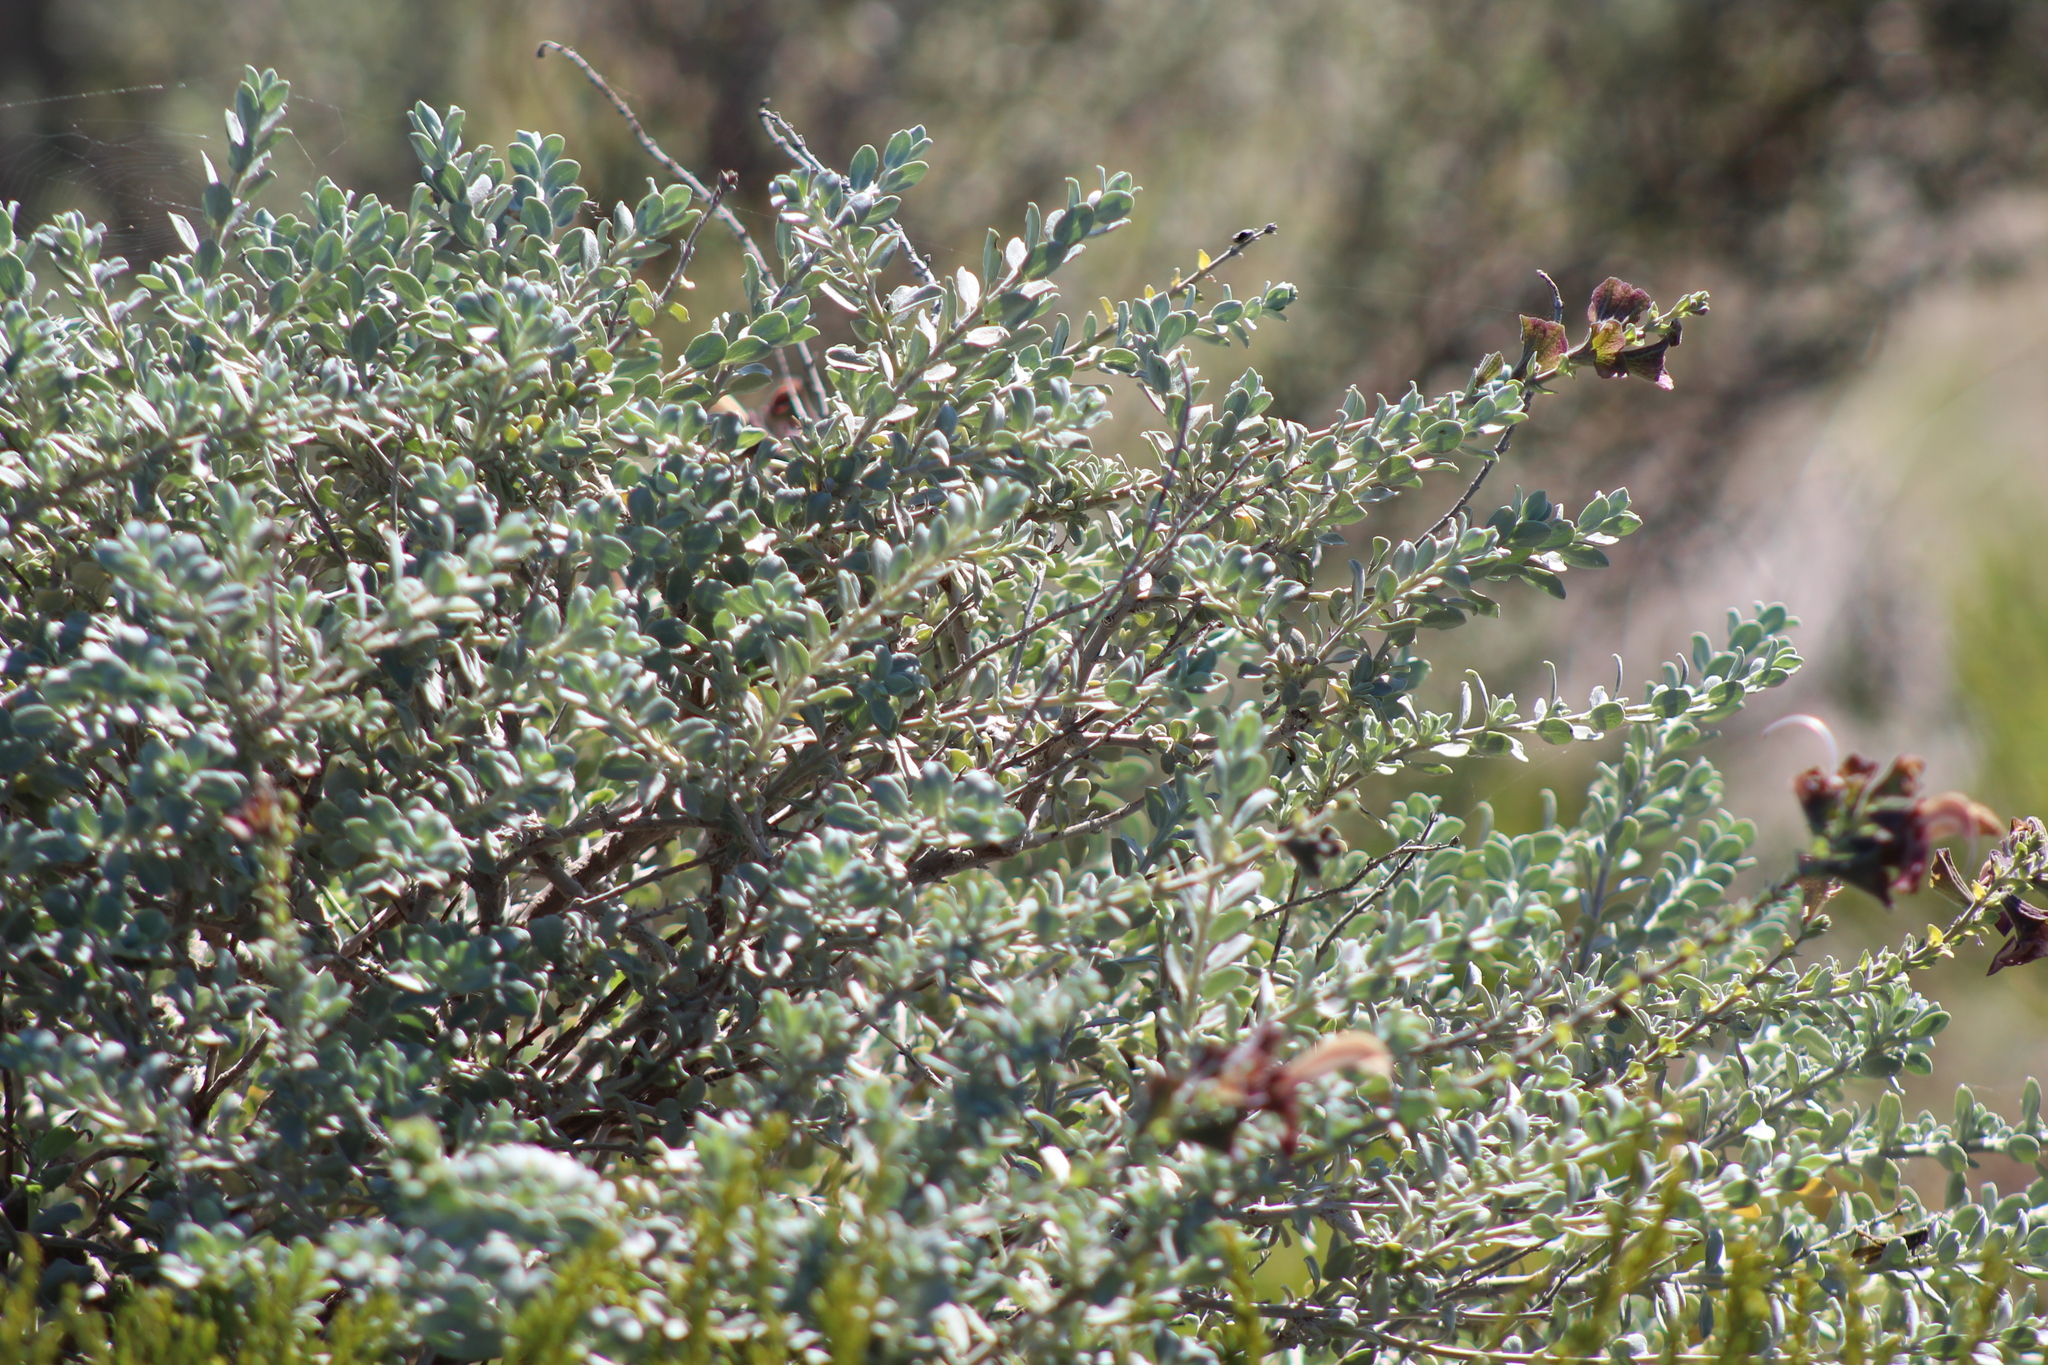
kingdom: Plantae
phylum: Tracheophyta
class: Magnoliopsida
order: Lamiales
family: Lamiaceae
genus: Salvia
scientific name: Salvia lanceolata
